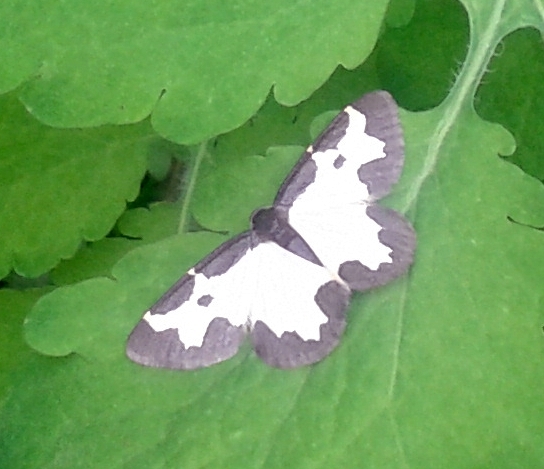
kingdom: Animalia
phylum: Arthropoda
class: Insecta
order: Lepidoptera
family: Geometridae
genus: Lomaspilis
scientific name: Lomaspilis marginata
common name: Clouded border
